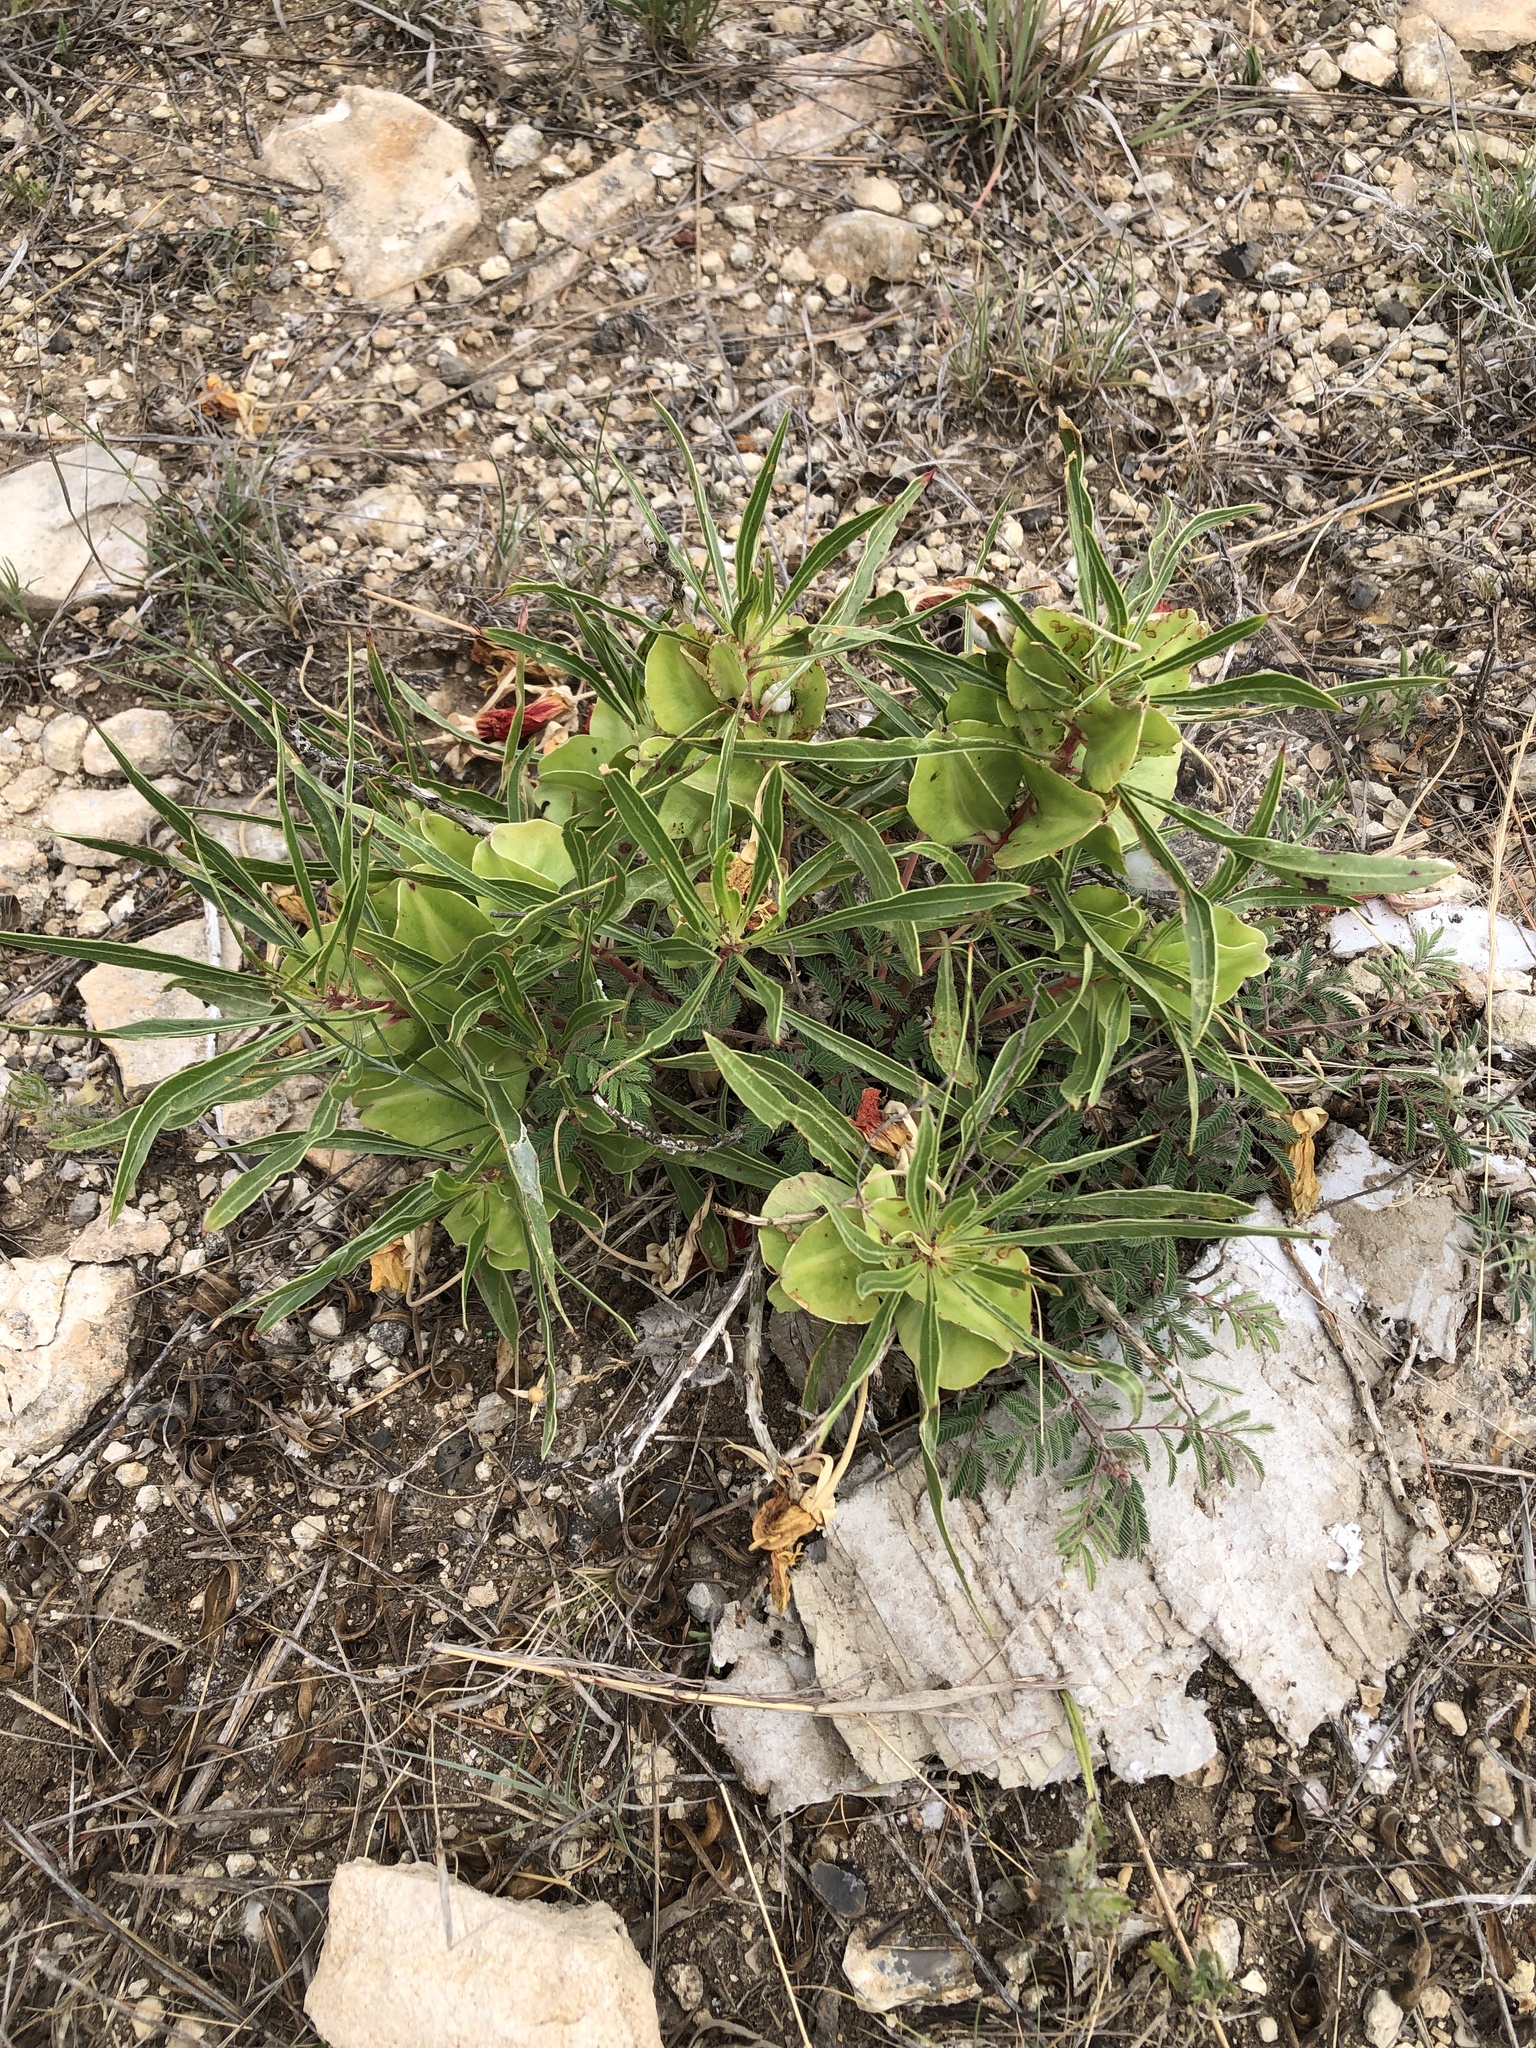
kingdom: Plantae
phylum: Tracheophyta
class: Magnoliopsida
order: Myrtales
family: Onagraceae
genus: Oenothera
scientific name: Oenothera macrocarpa
